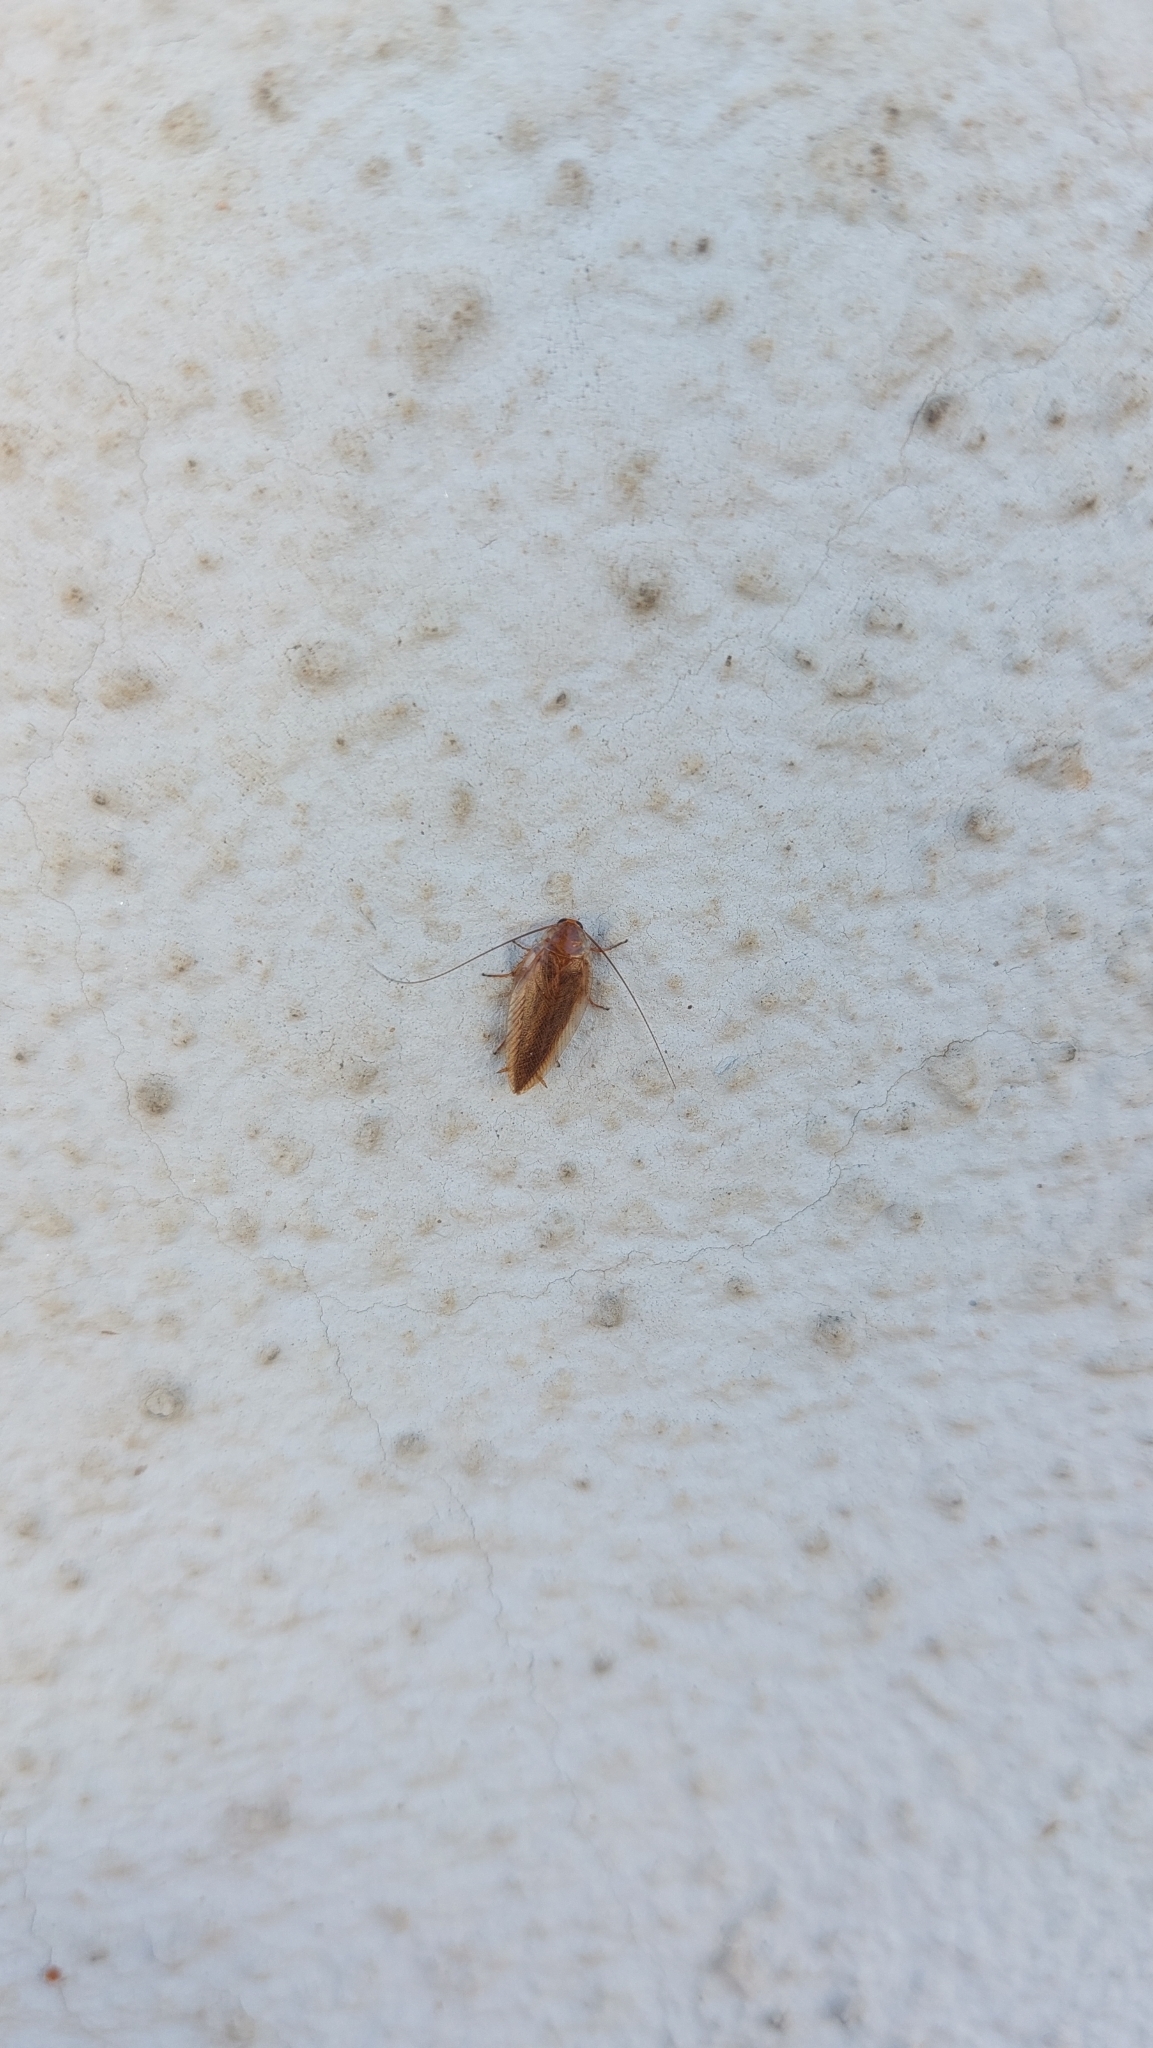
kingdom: Animalia
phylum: Arthropoda
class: Insecta
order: Blattodea
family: Ectobiidae
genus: Ectobius
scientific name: Ectobius vittiventris
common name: Garden cockroach
